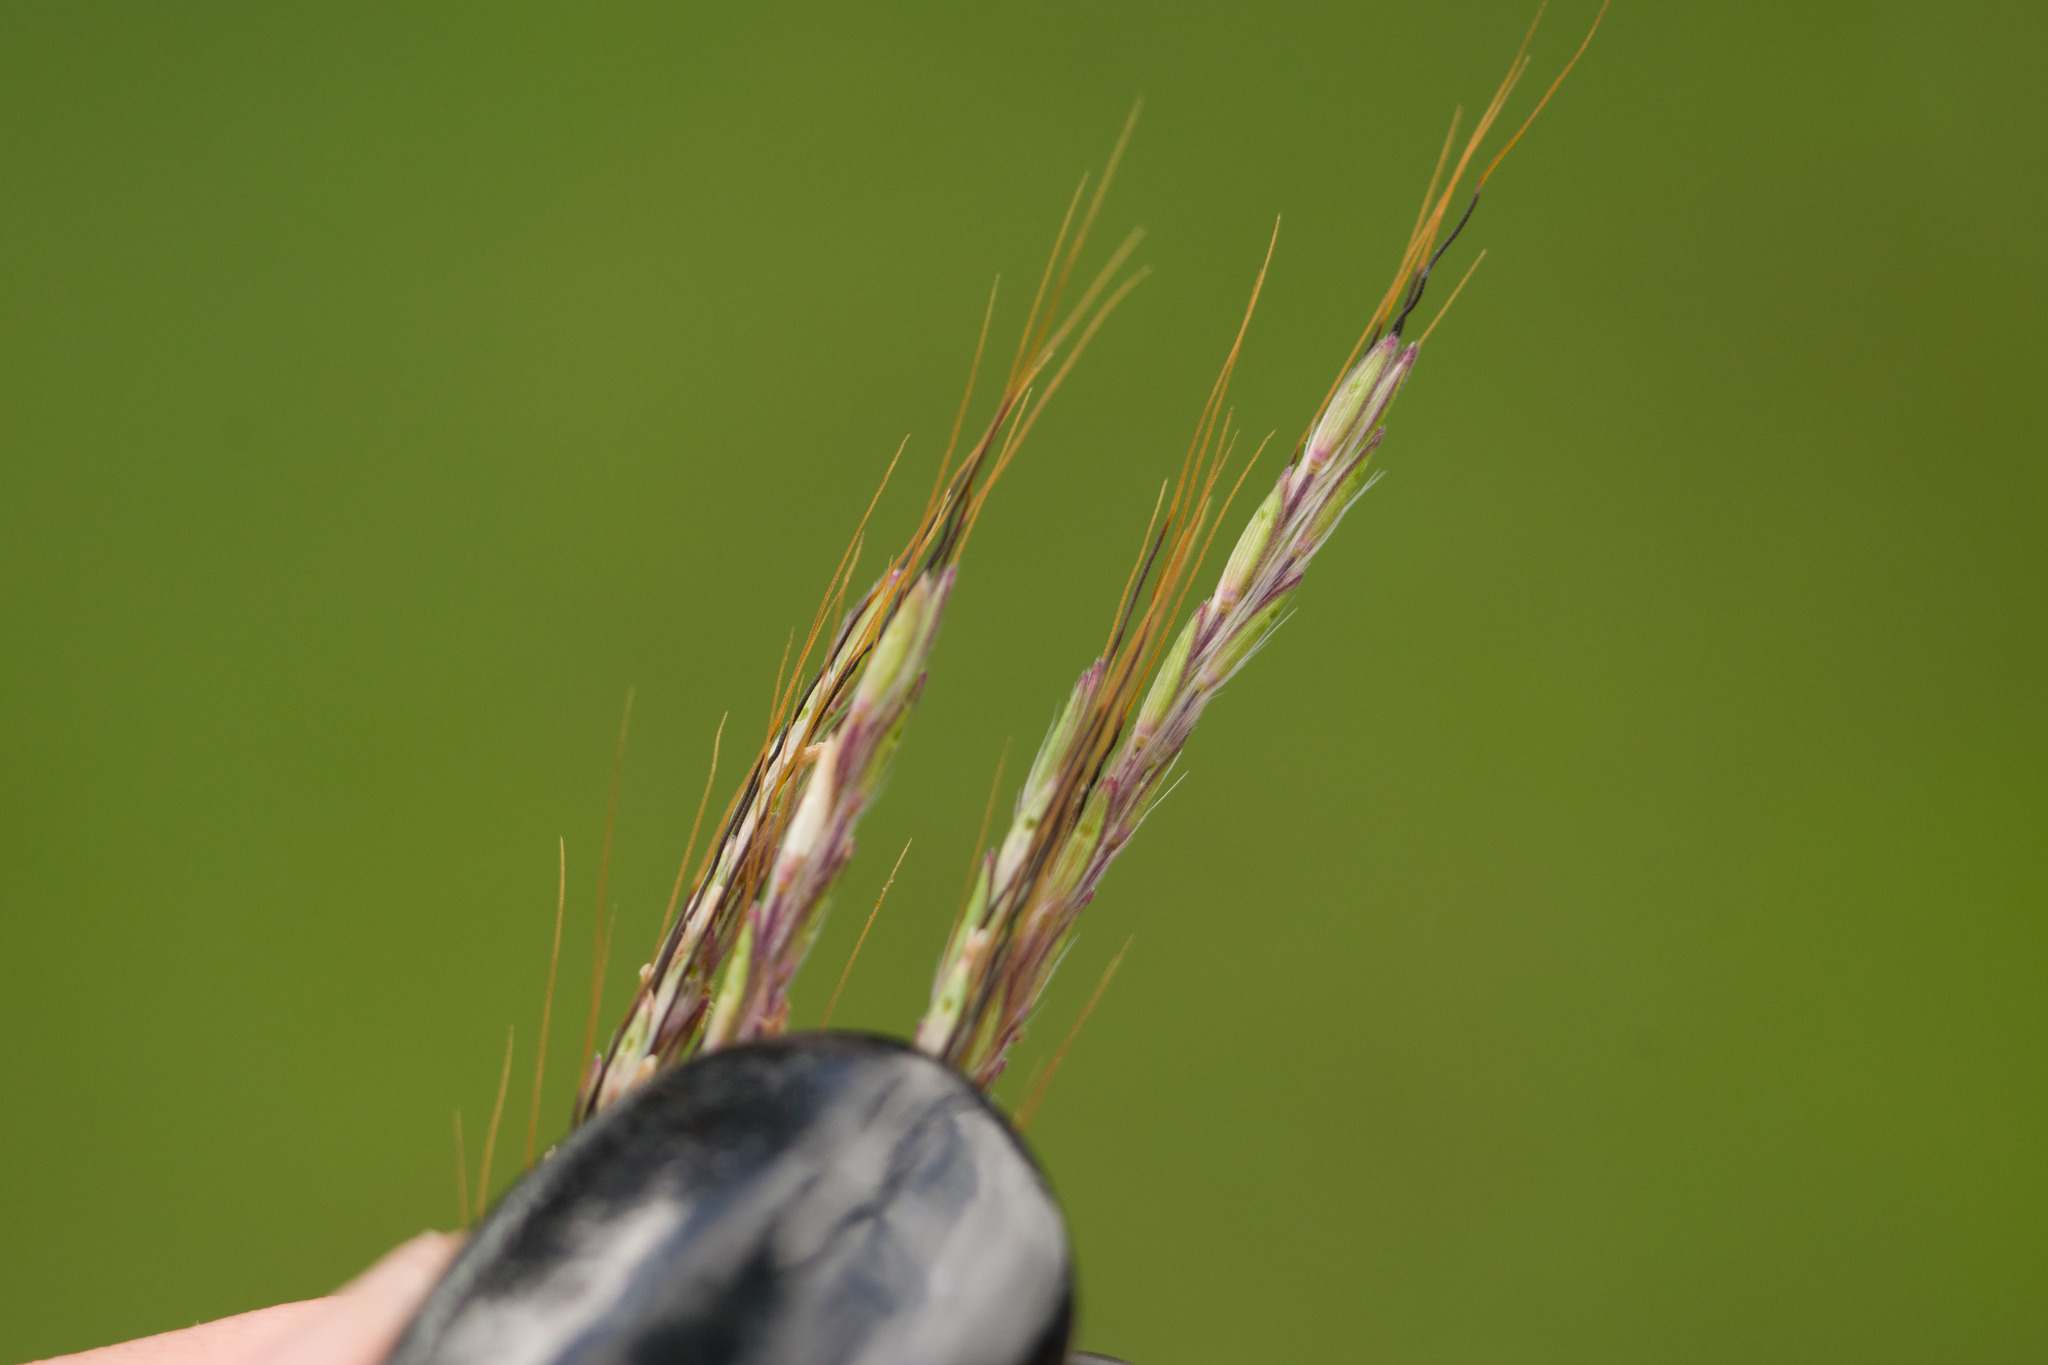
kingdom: Plantae
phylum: Tracheophyta
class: Liliopsida
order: Poales
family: Poaceae
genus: Bothriochloa
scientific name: Bothriochloa pertusa
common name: Pitted beardgrass
